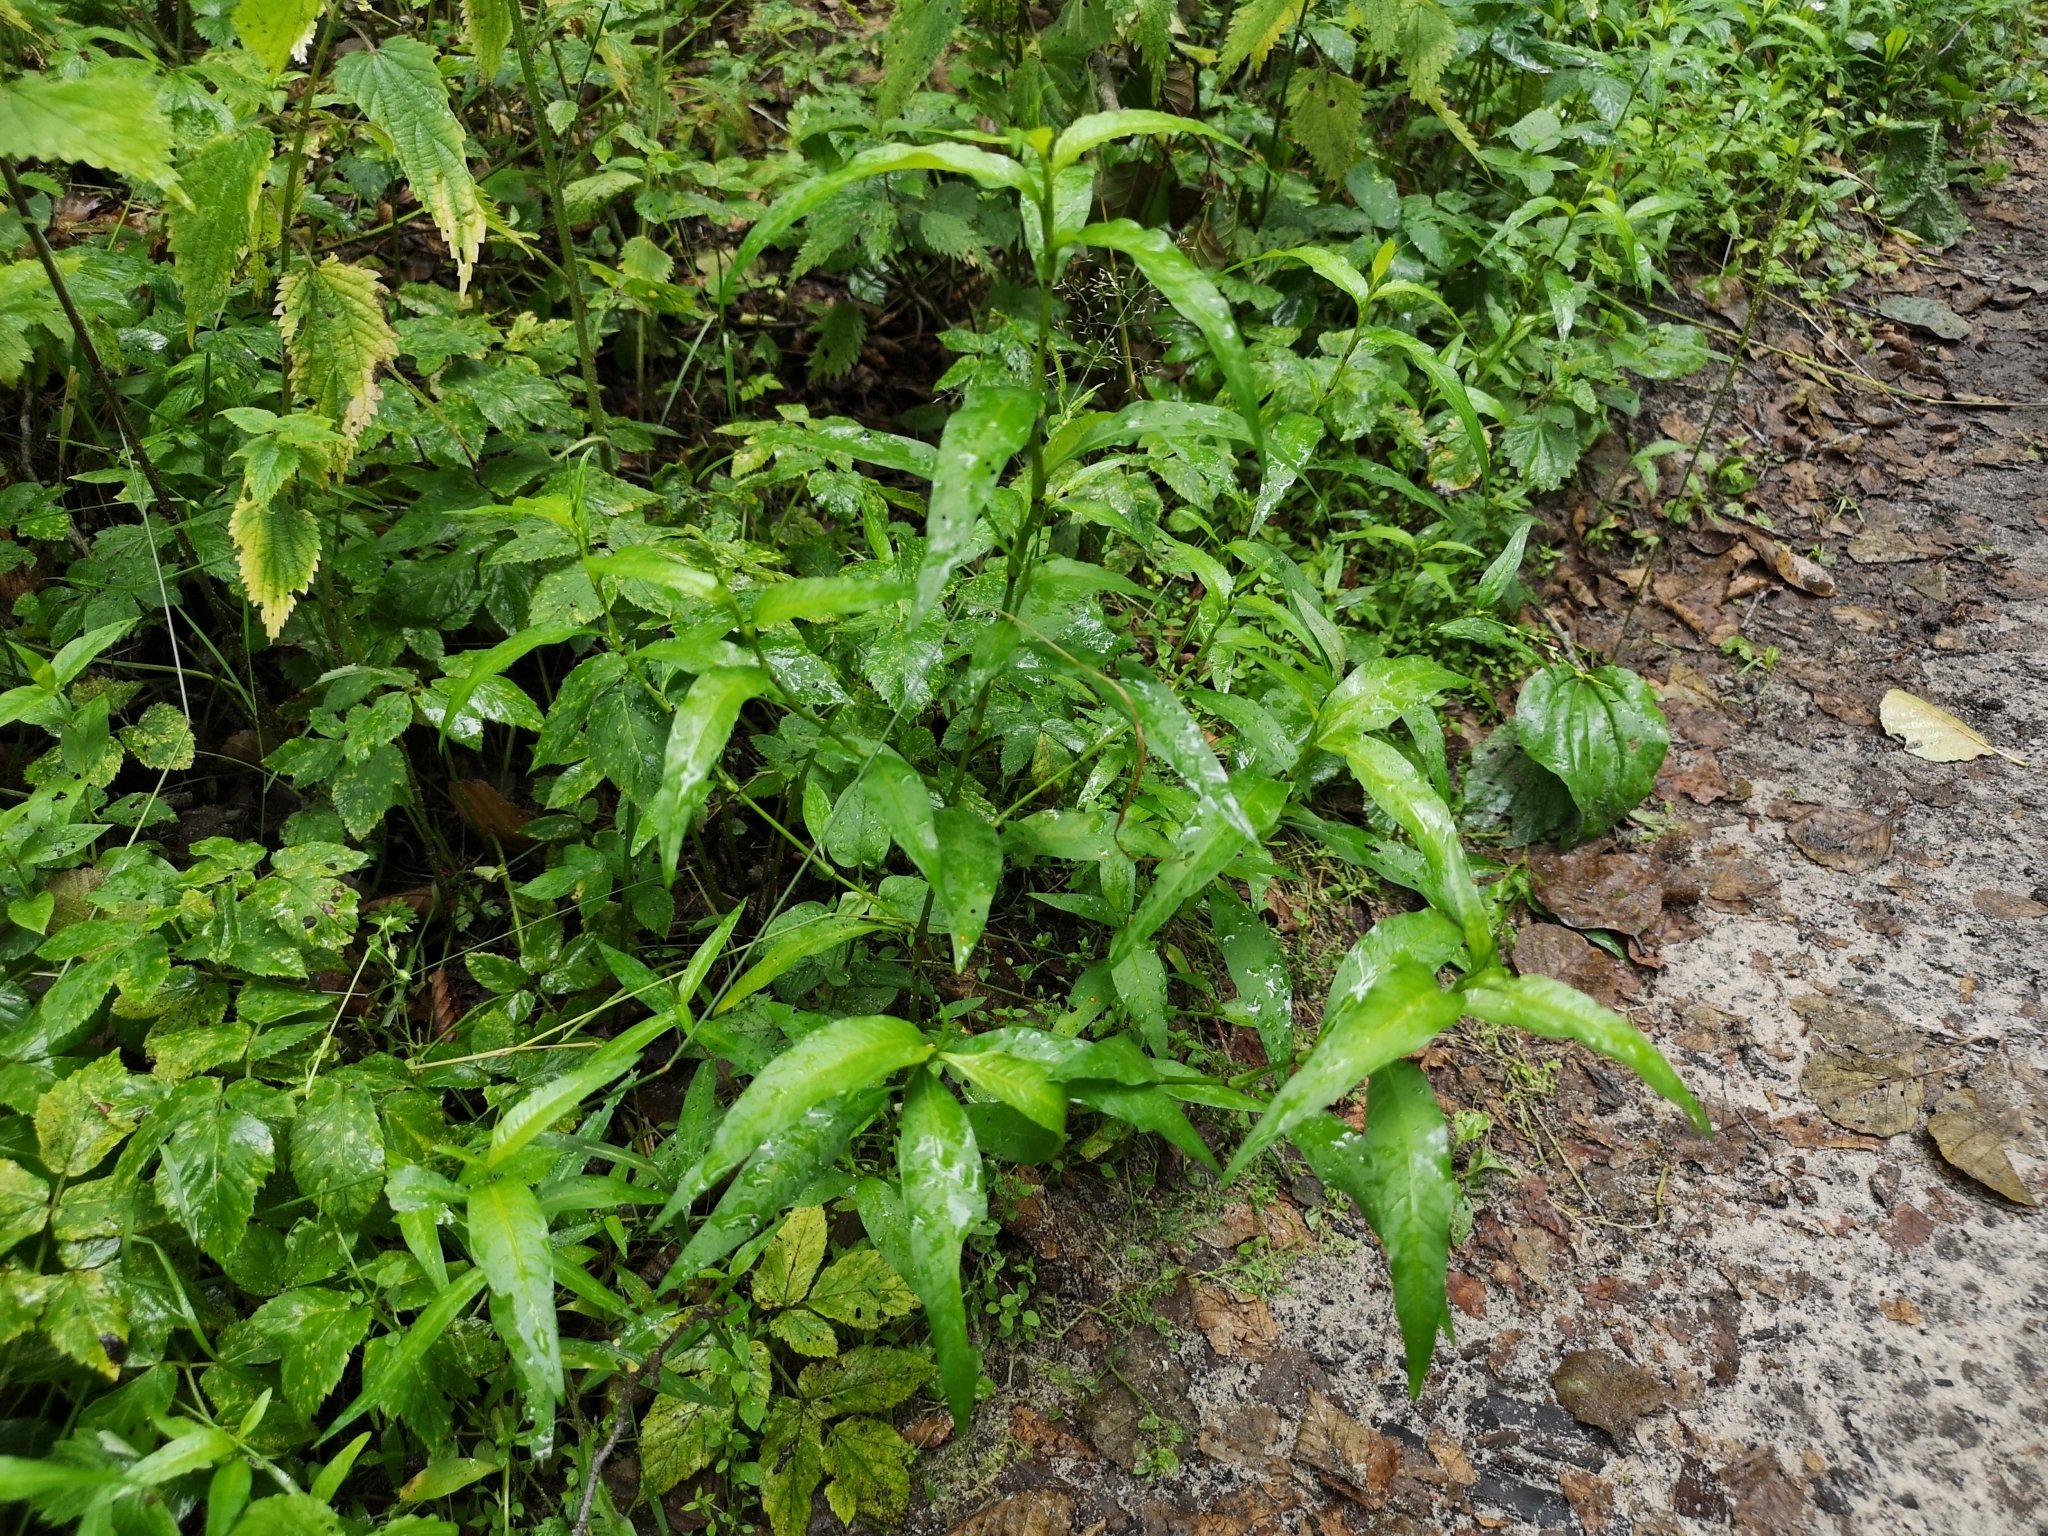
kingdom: Plantae
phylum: Tracheophyta
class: Magnoliopsida
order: Caryophyllales
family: Polygonaceae
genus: Persicaria
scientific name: Persicaria hydropiper
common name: Water-pepper
